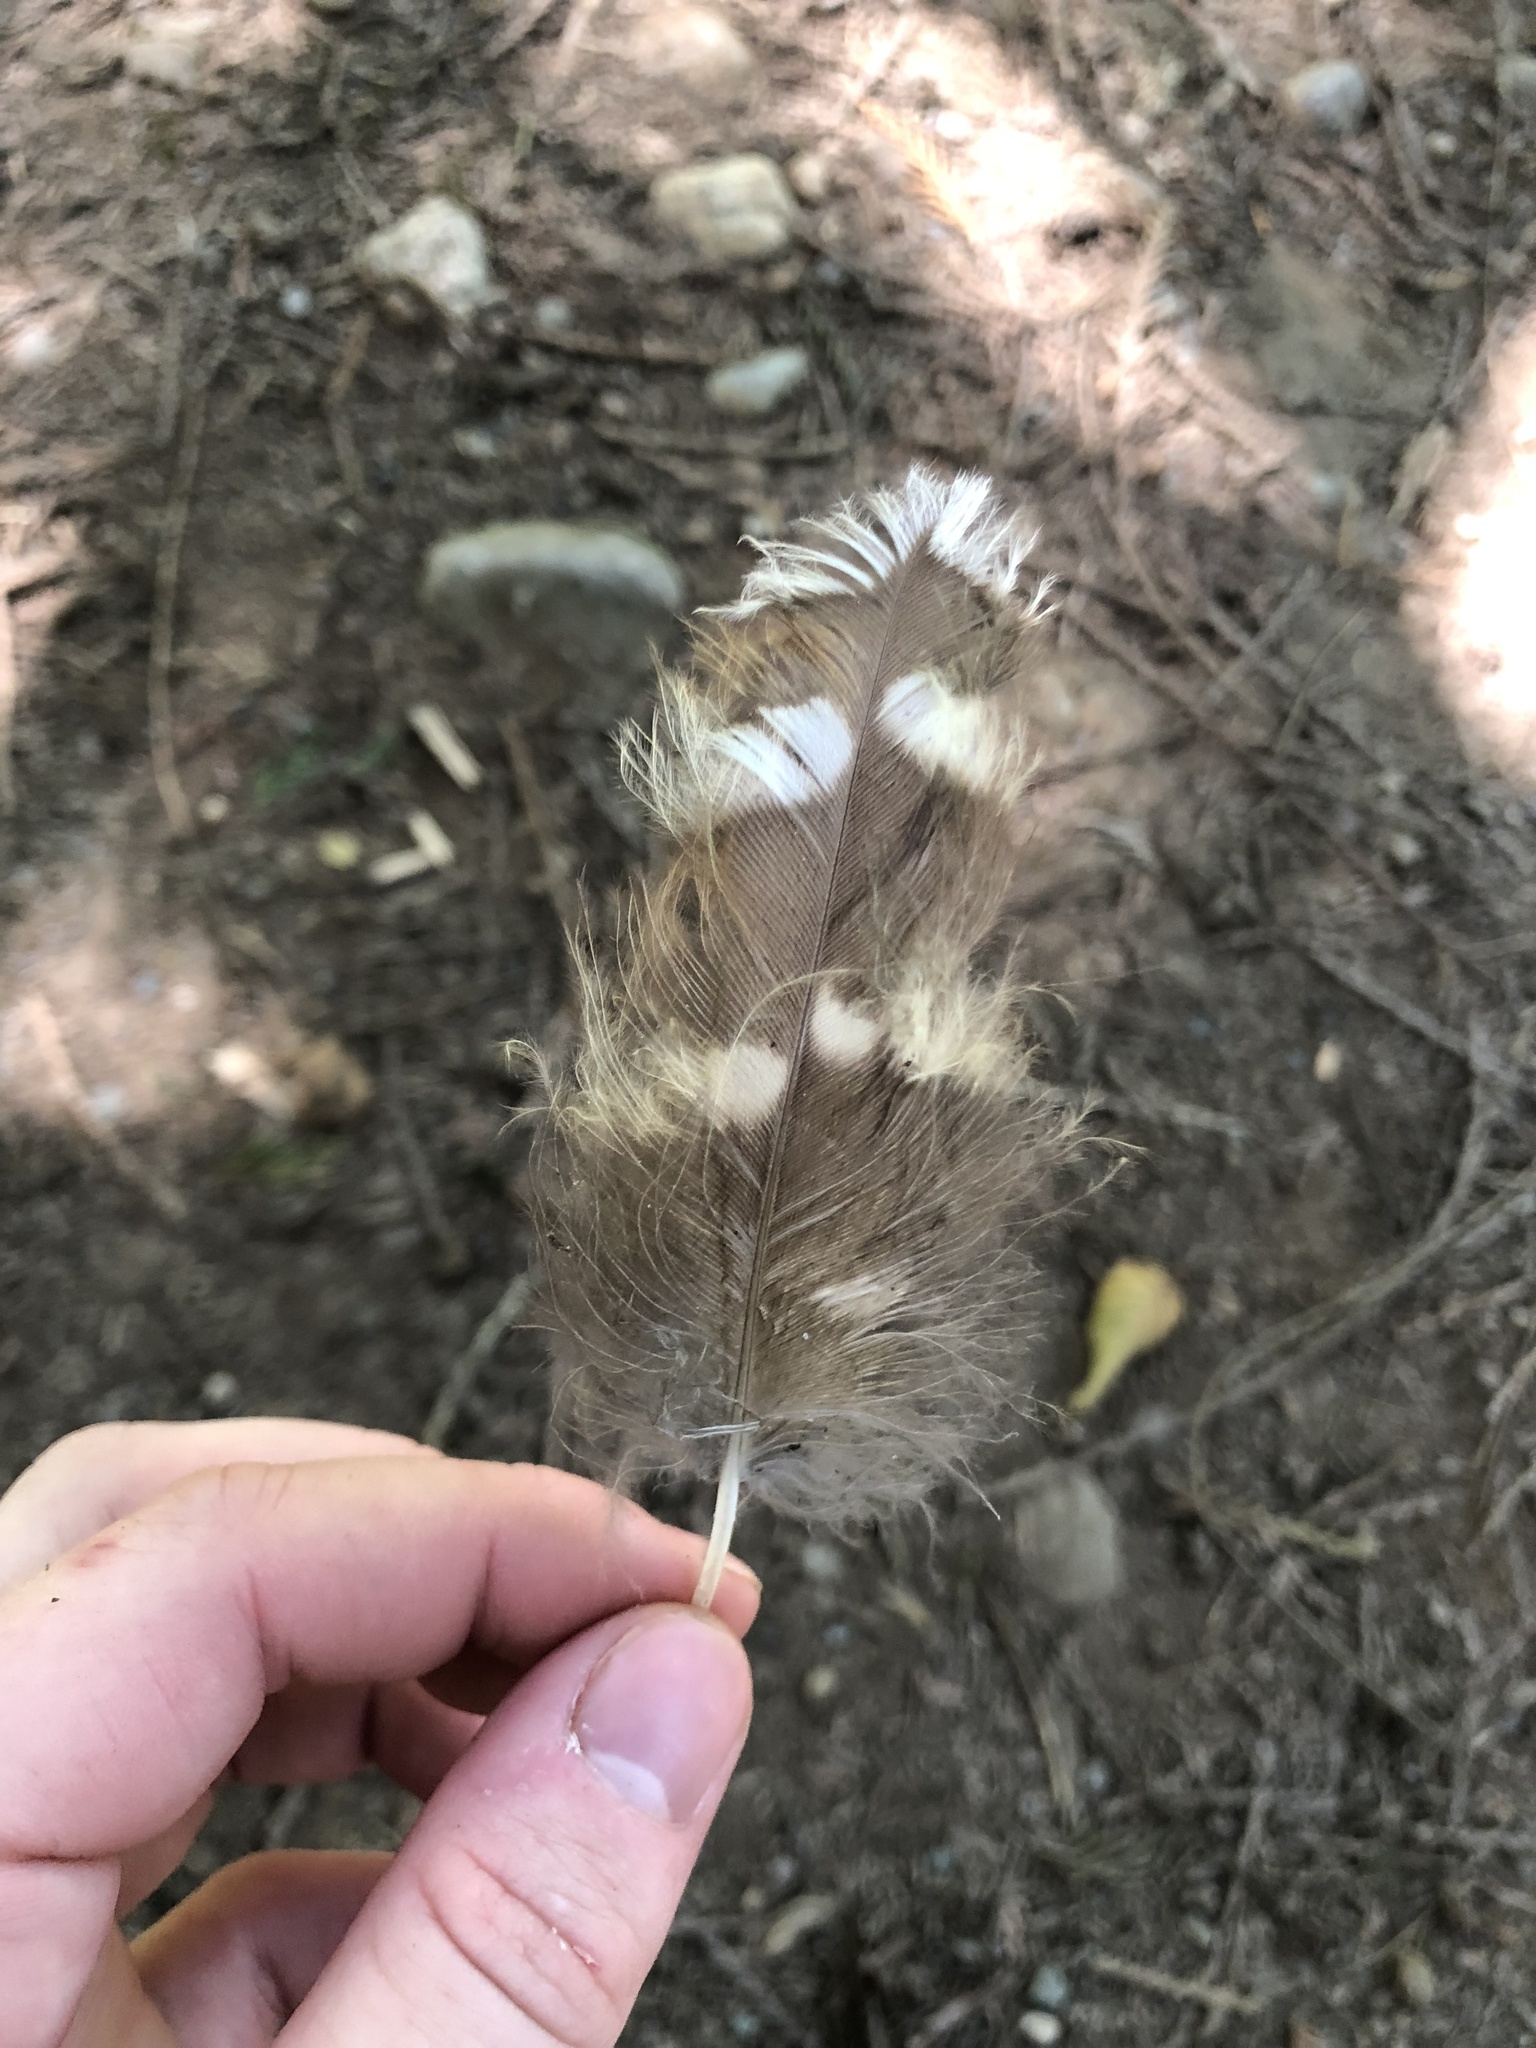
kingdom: Animalia
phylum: Chordata
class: Aves
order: Strigiformes
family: Strigidae
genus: Strix
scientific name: Strix varia
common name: Barred owl
